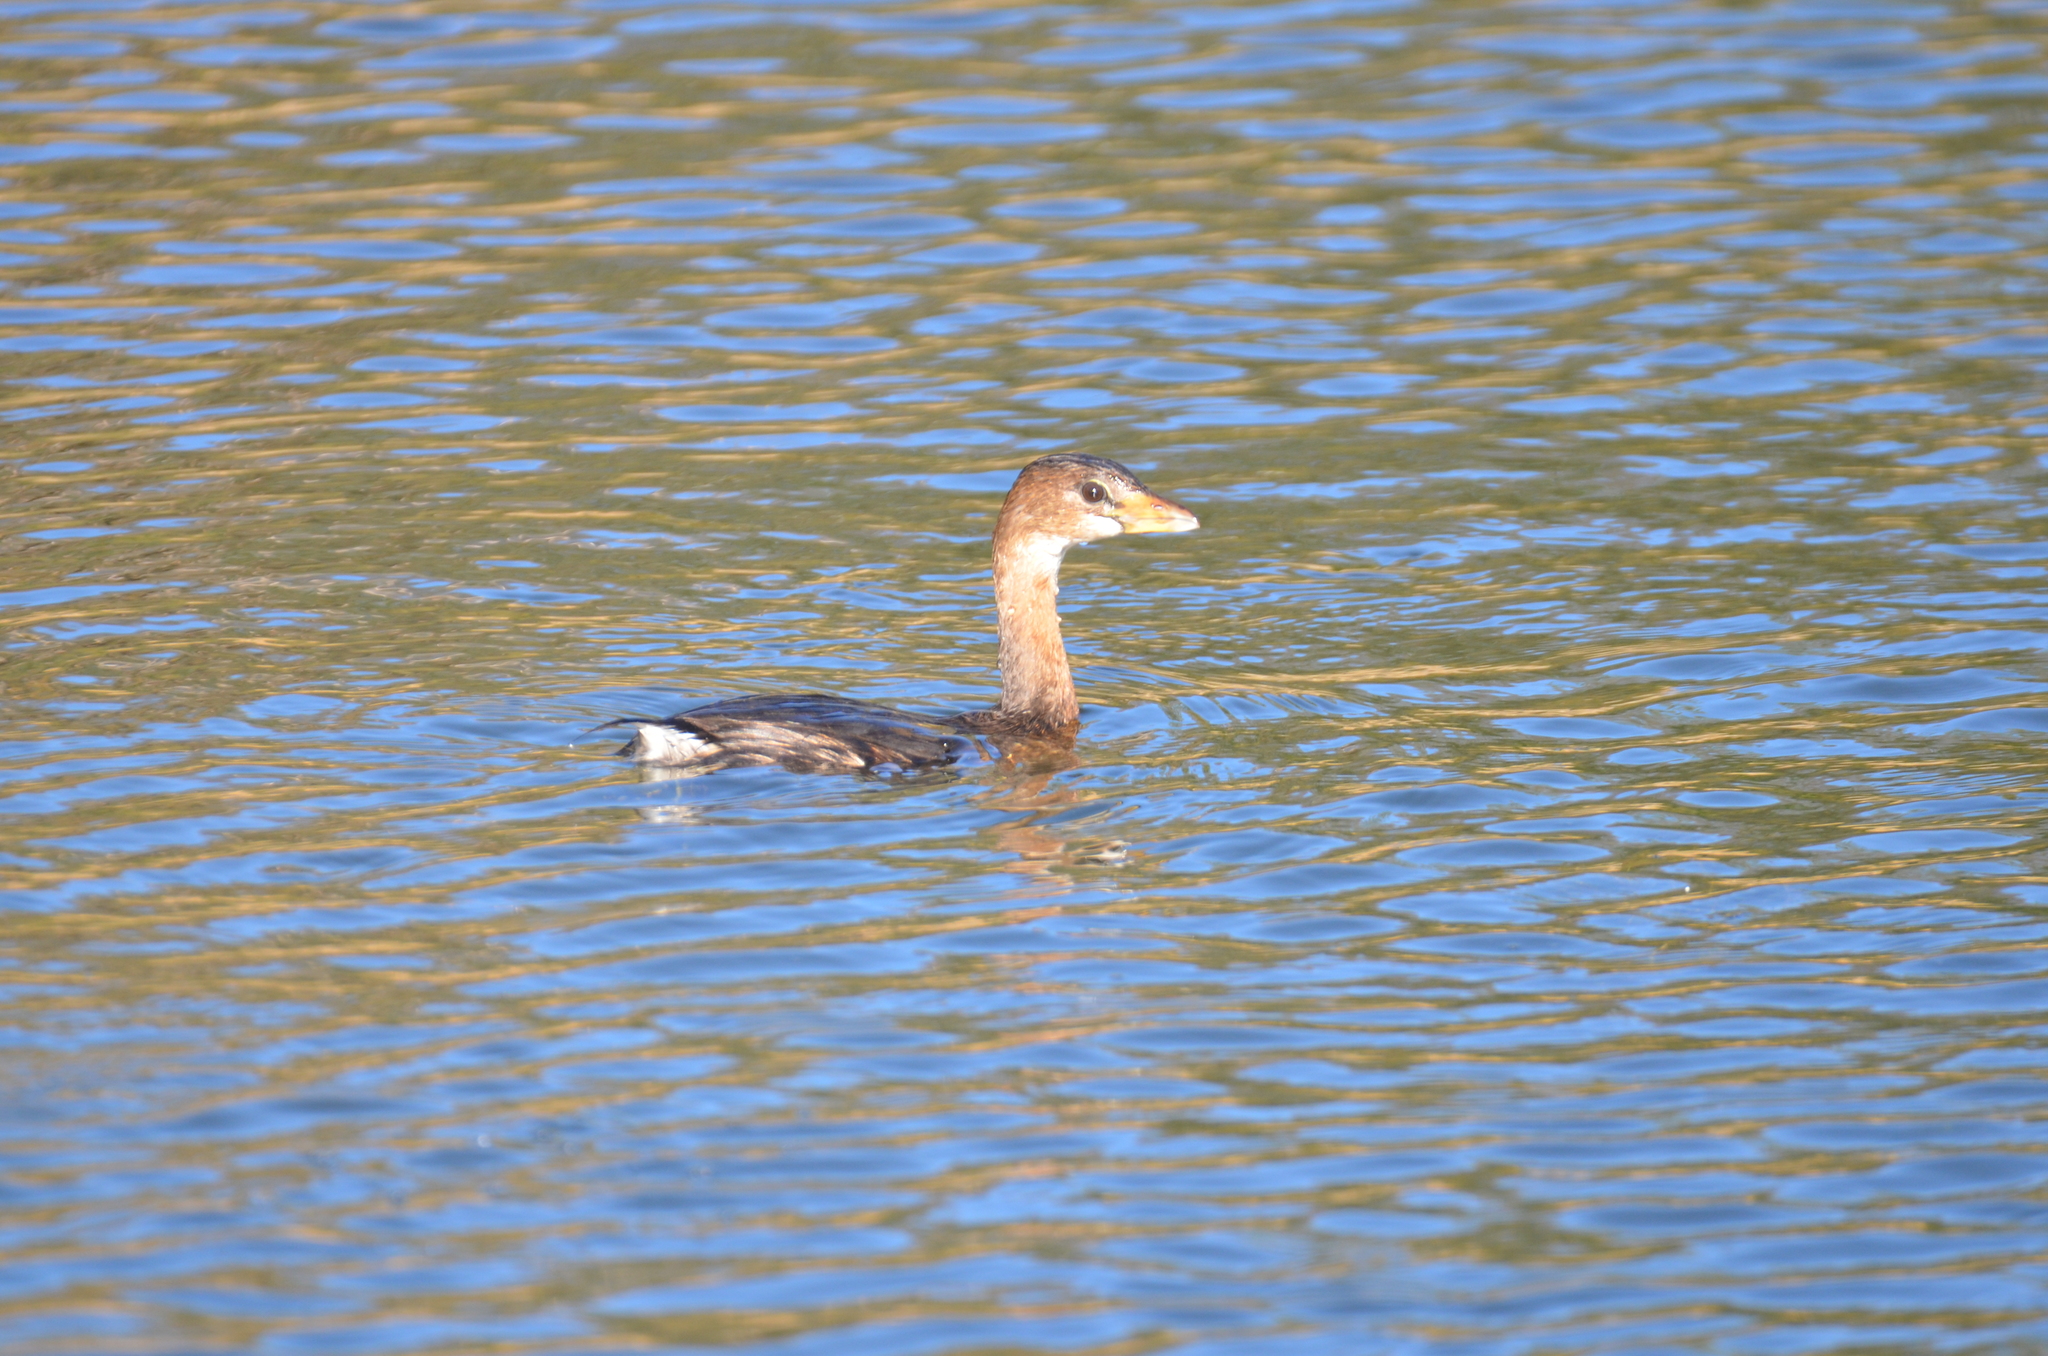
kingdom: Animalia
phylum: Chordata
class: Aves
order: Podicipediformes
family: Podicipedidae
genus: Podilymbus
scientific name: Podilymbus podiceps
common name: Pied-billed grebe
